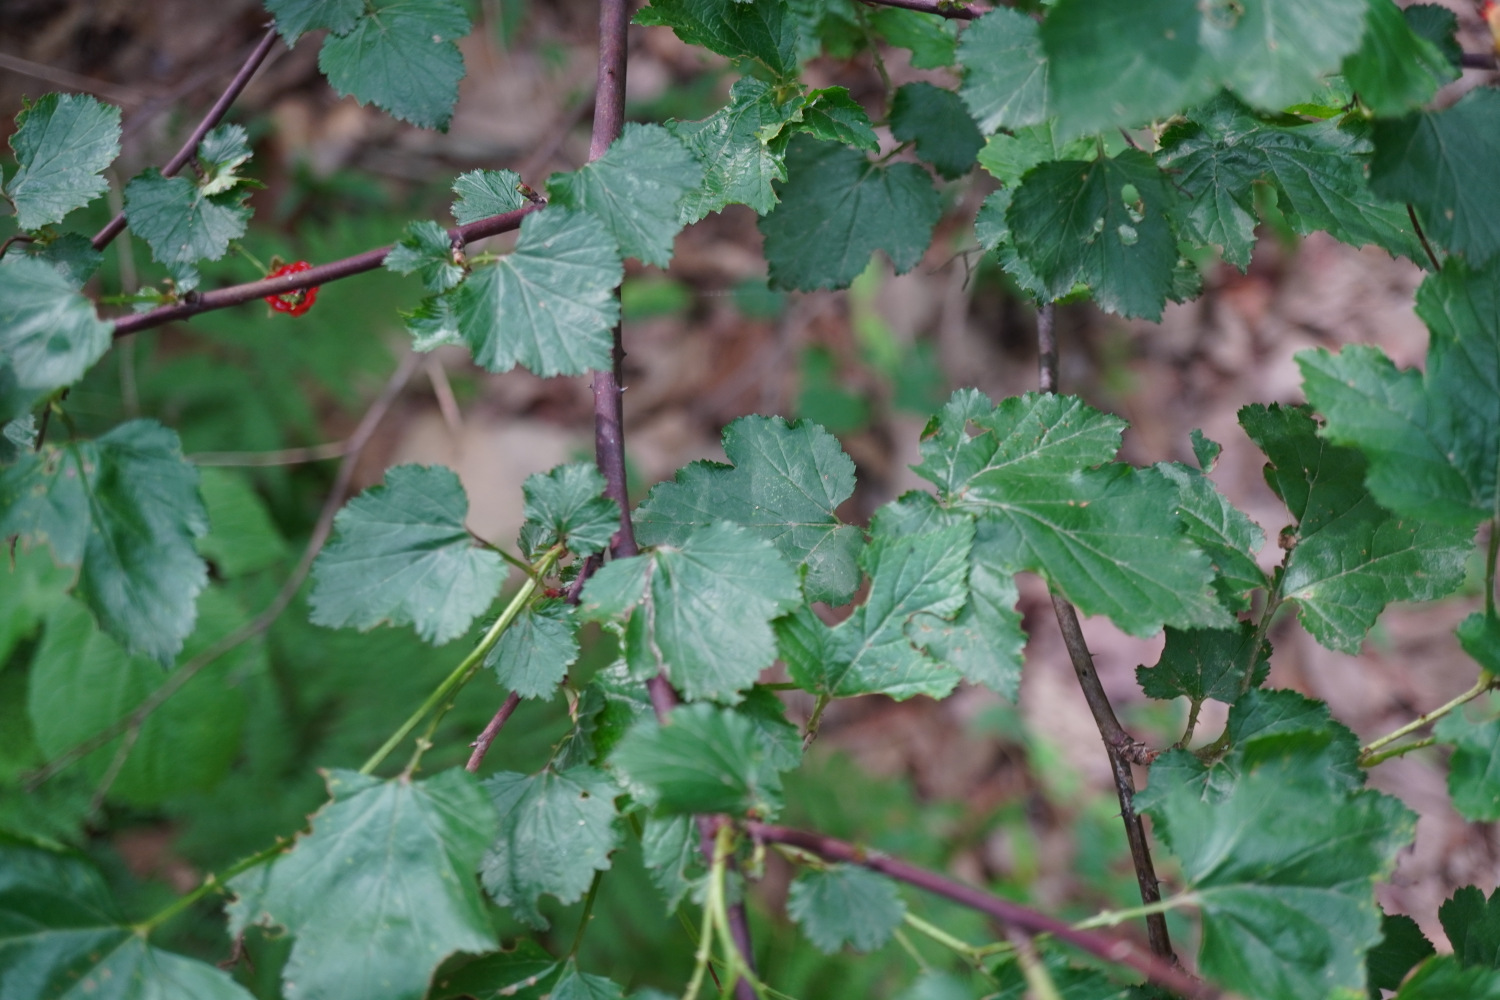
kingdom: Plantae
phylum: Tracheophyta
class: Magnoliopsida
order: Rosales
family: Rosaceae
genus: Rubus
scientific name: Rubus crataegifolius
